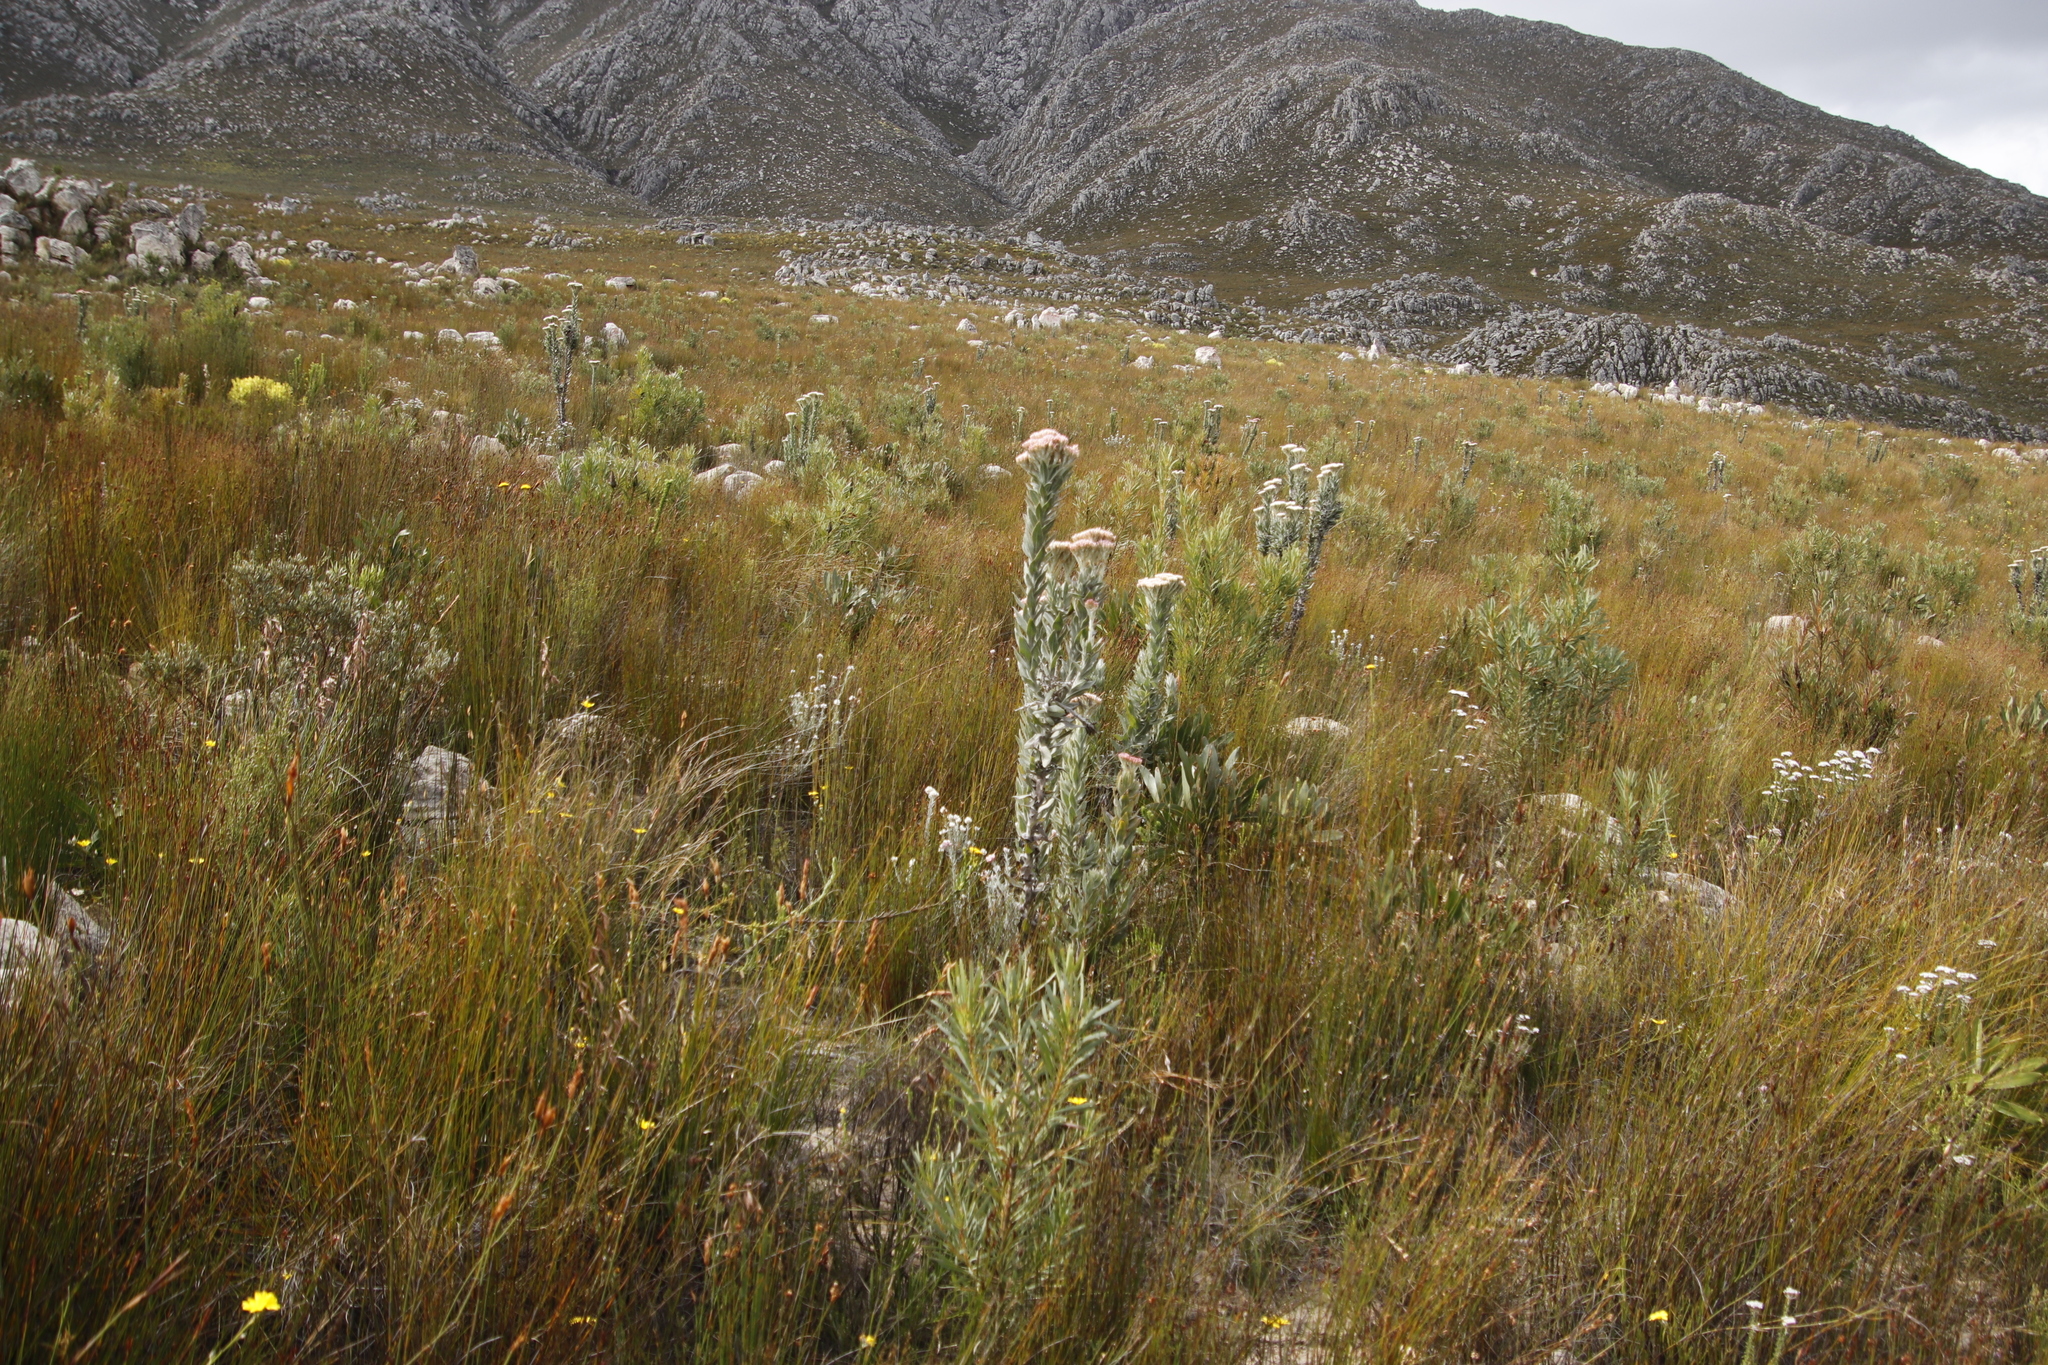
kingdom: Plantae
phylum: Tracheophyta
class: Magnoliopsida
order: Asterales
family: Asteraceae
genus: Syncarpha
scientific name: Syncarpha milleflora
